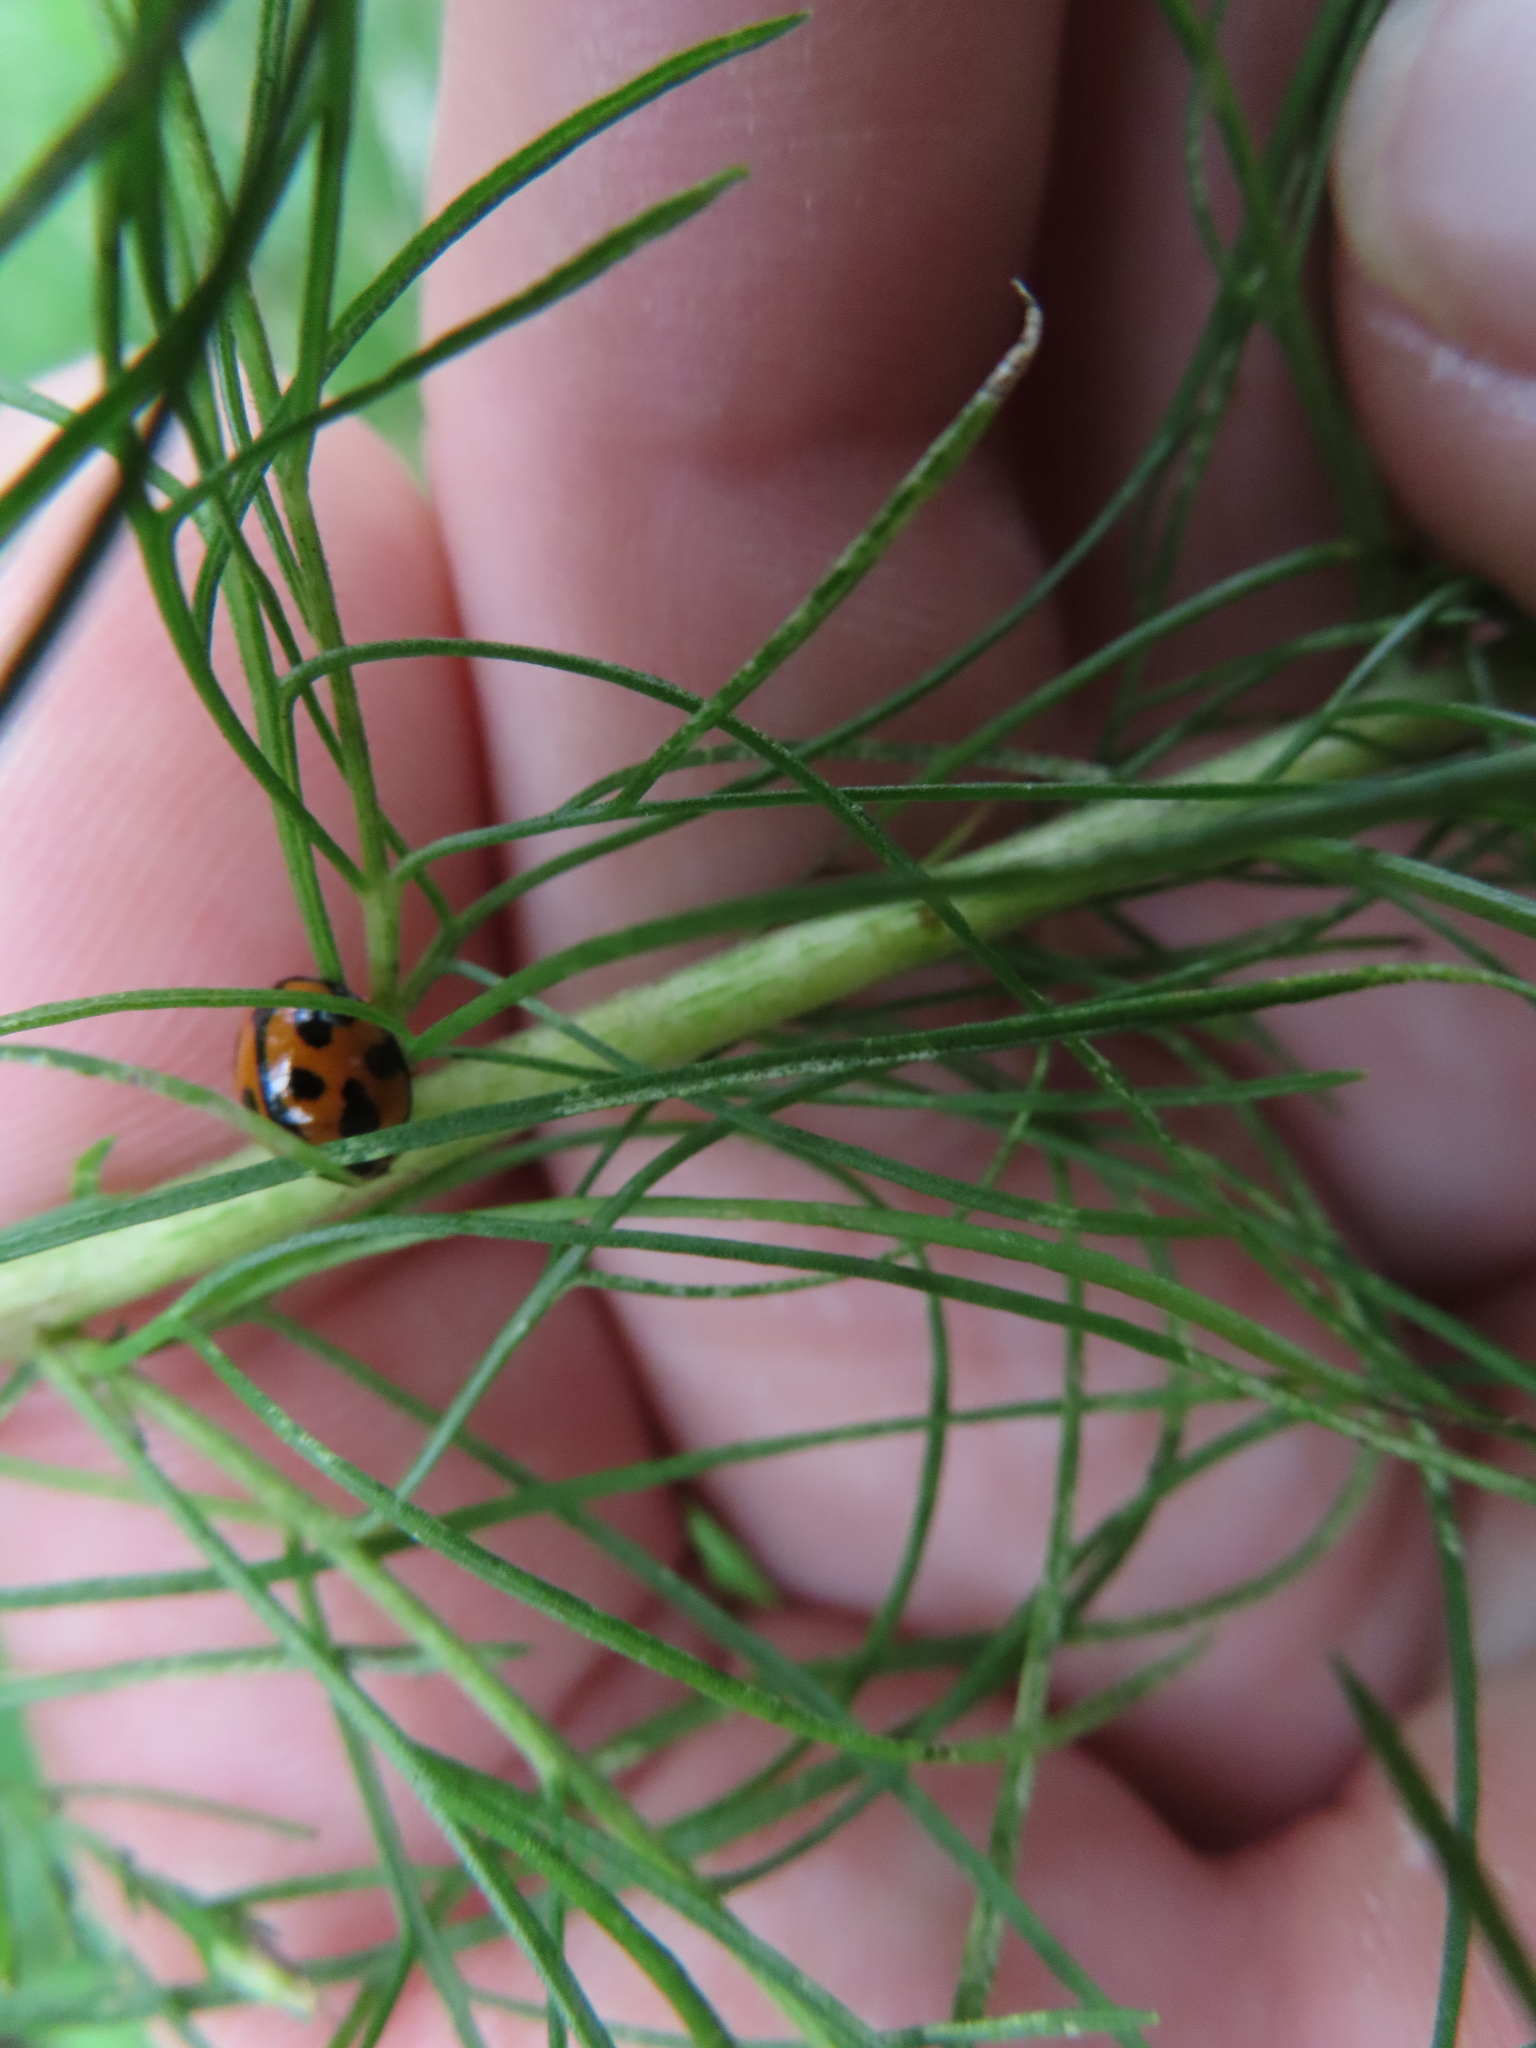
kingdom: Animalia
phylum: Arthropoda
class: Insecta
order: Coleoptera
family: Coccinellidae
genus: Coelophora
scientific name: Coelophora inaequalis
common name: Common australian lady beetle
